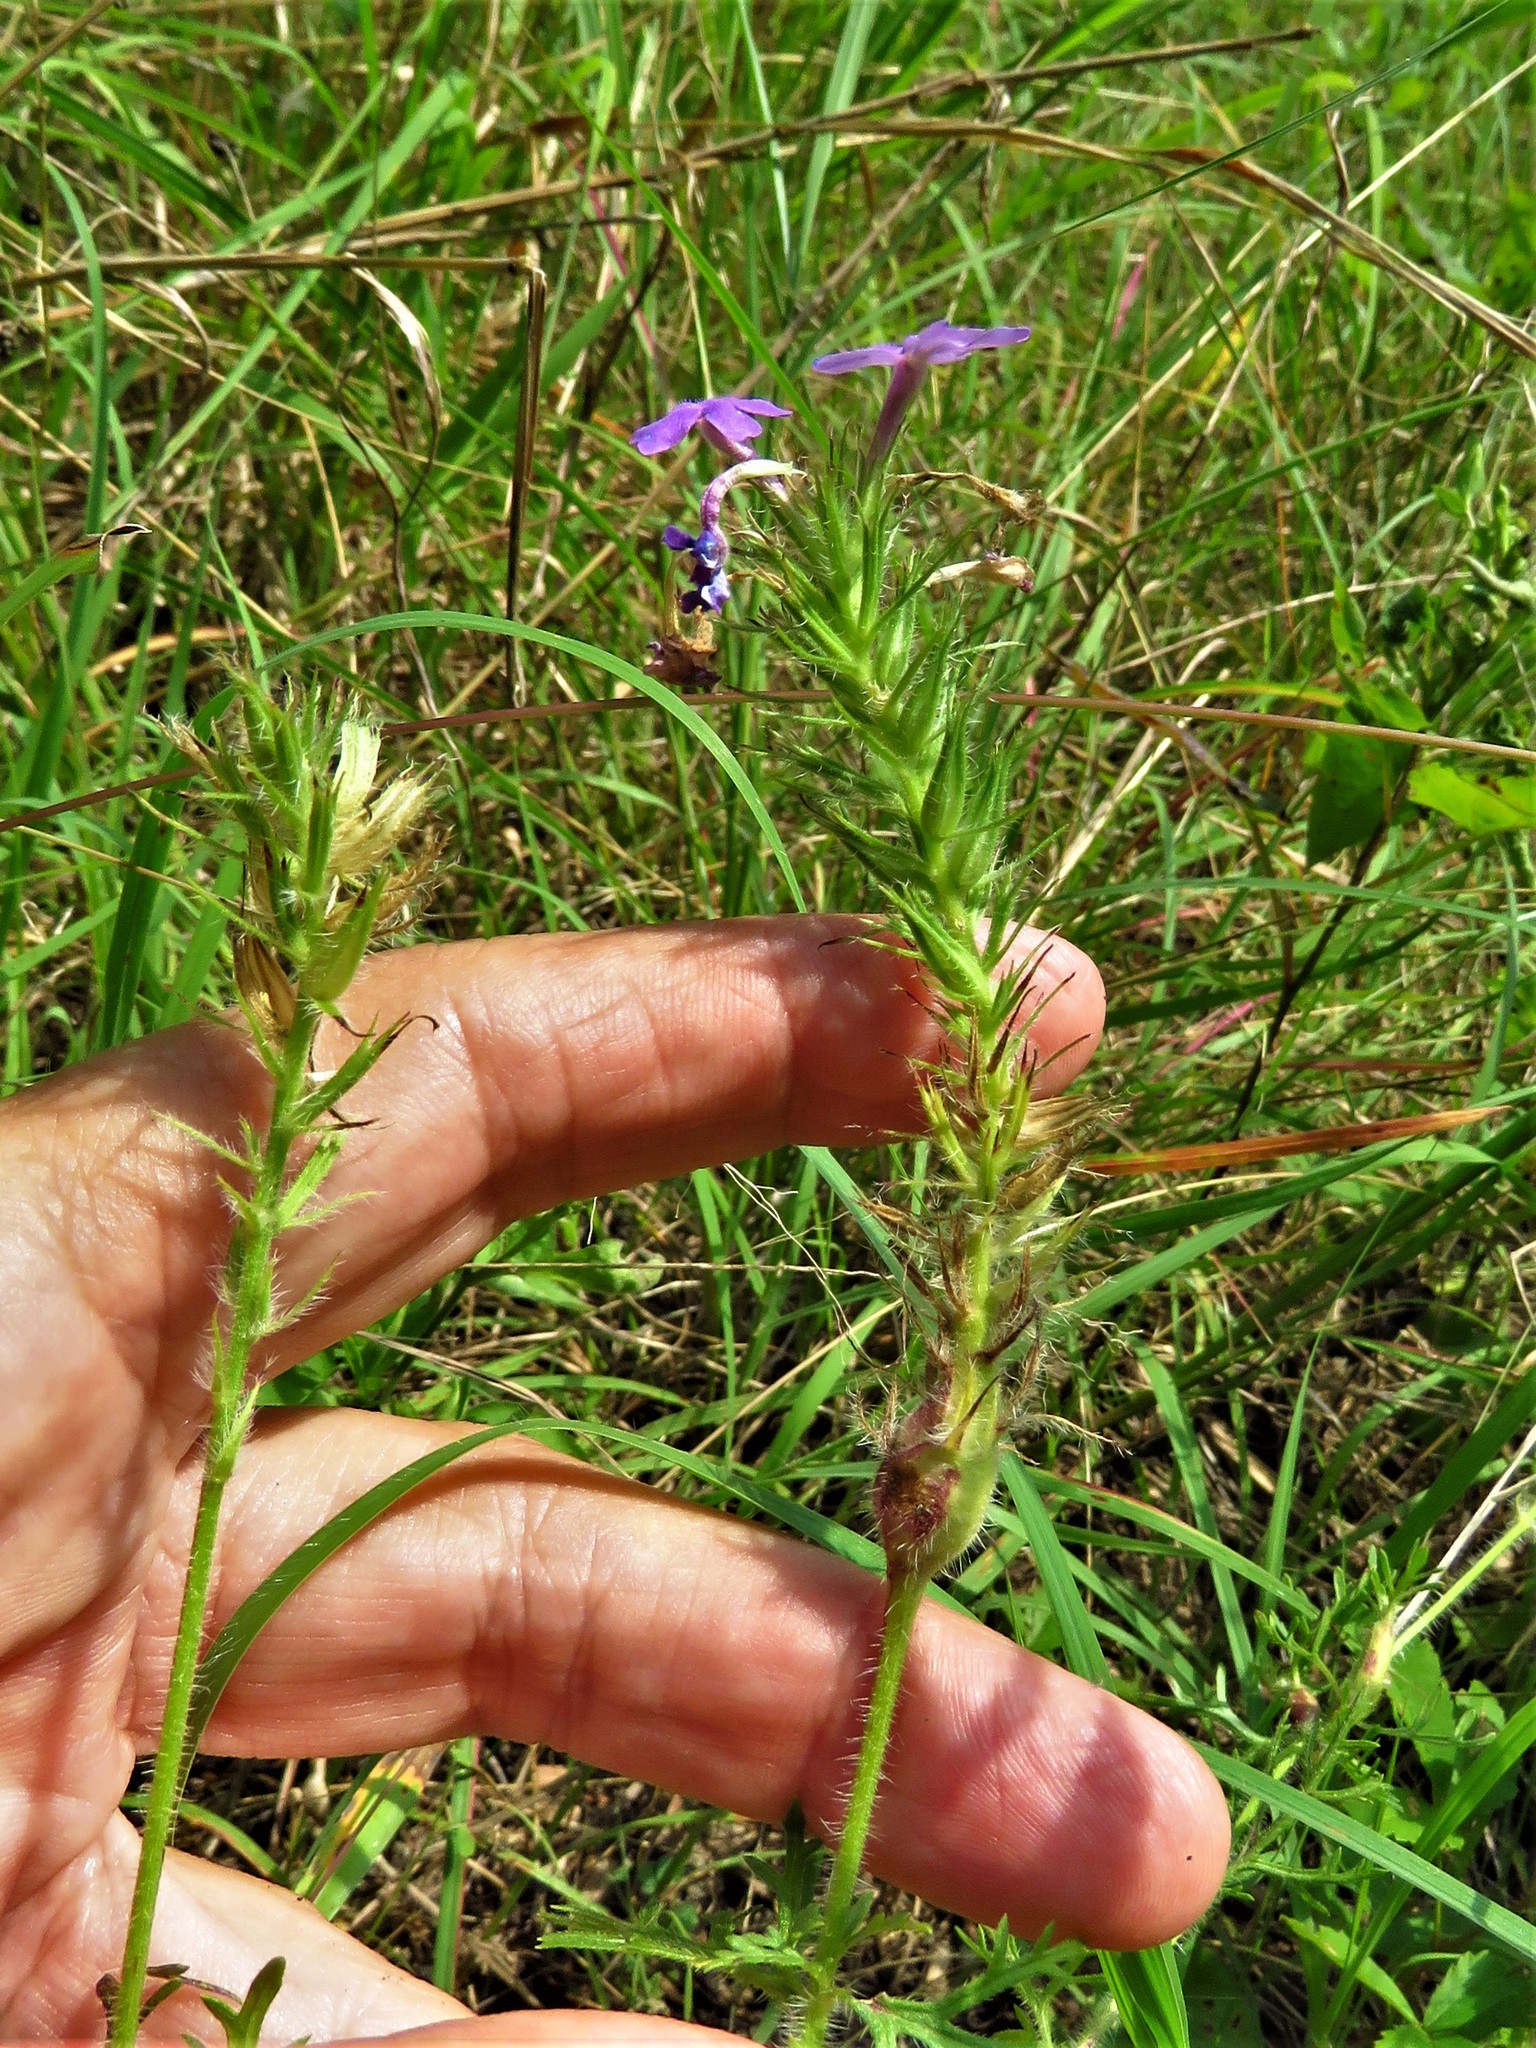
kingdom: Plantae
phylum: Tracheophyta
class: Magnoliopsida
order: Lamiales
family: Verbenaceae
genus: Verbena
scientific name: Verbena bipinnatifida
